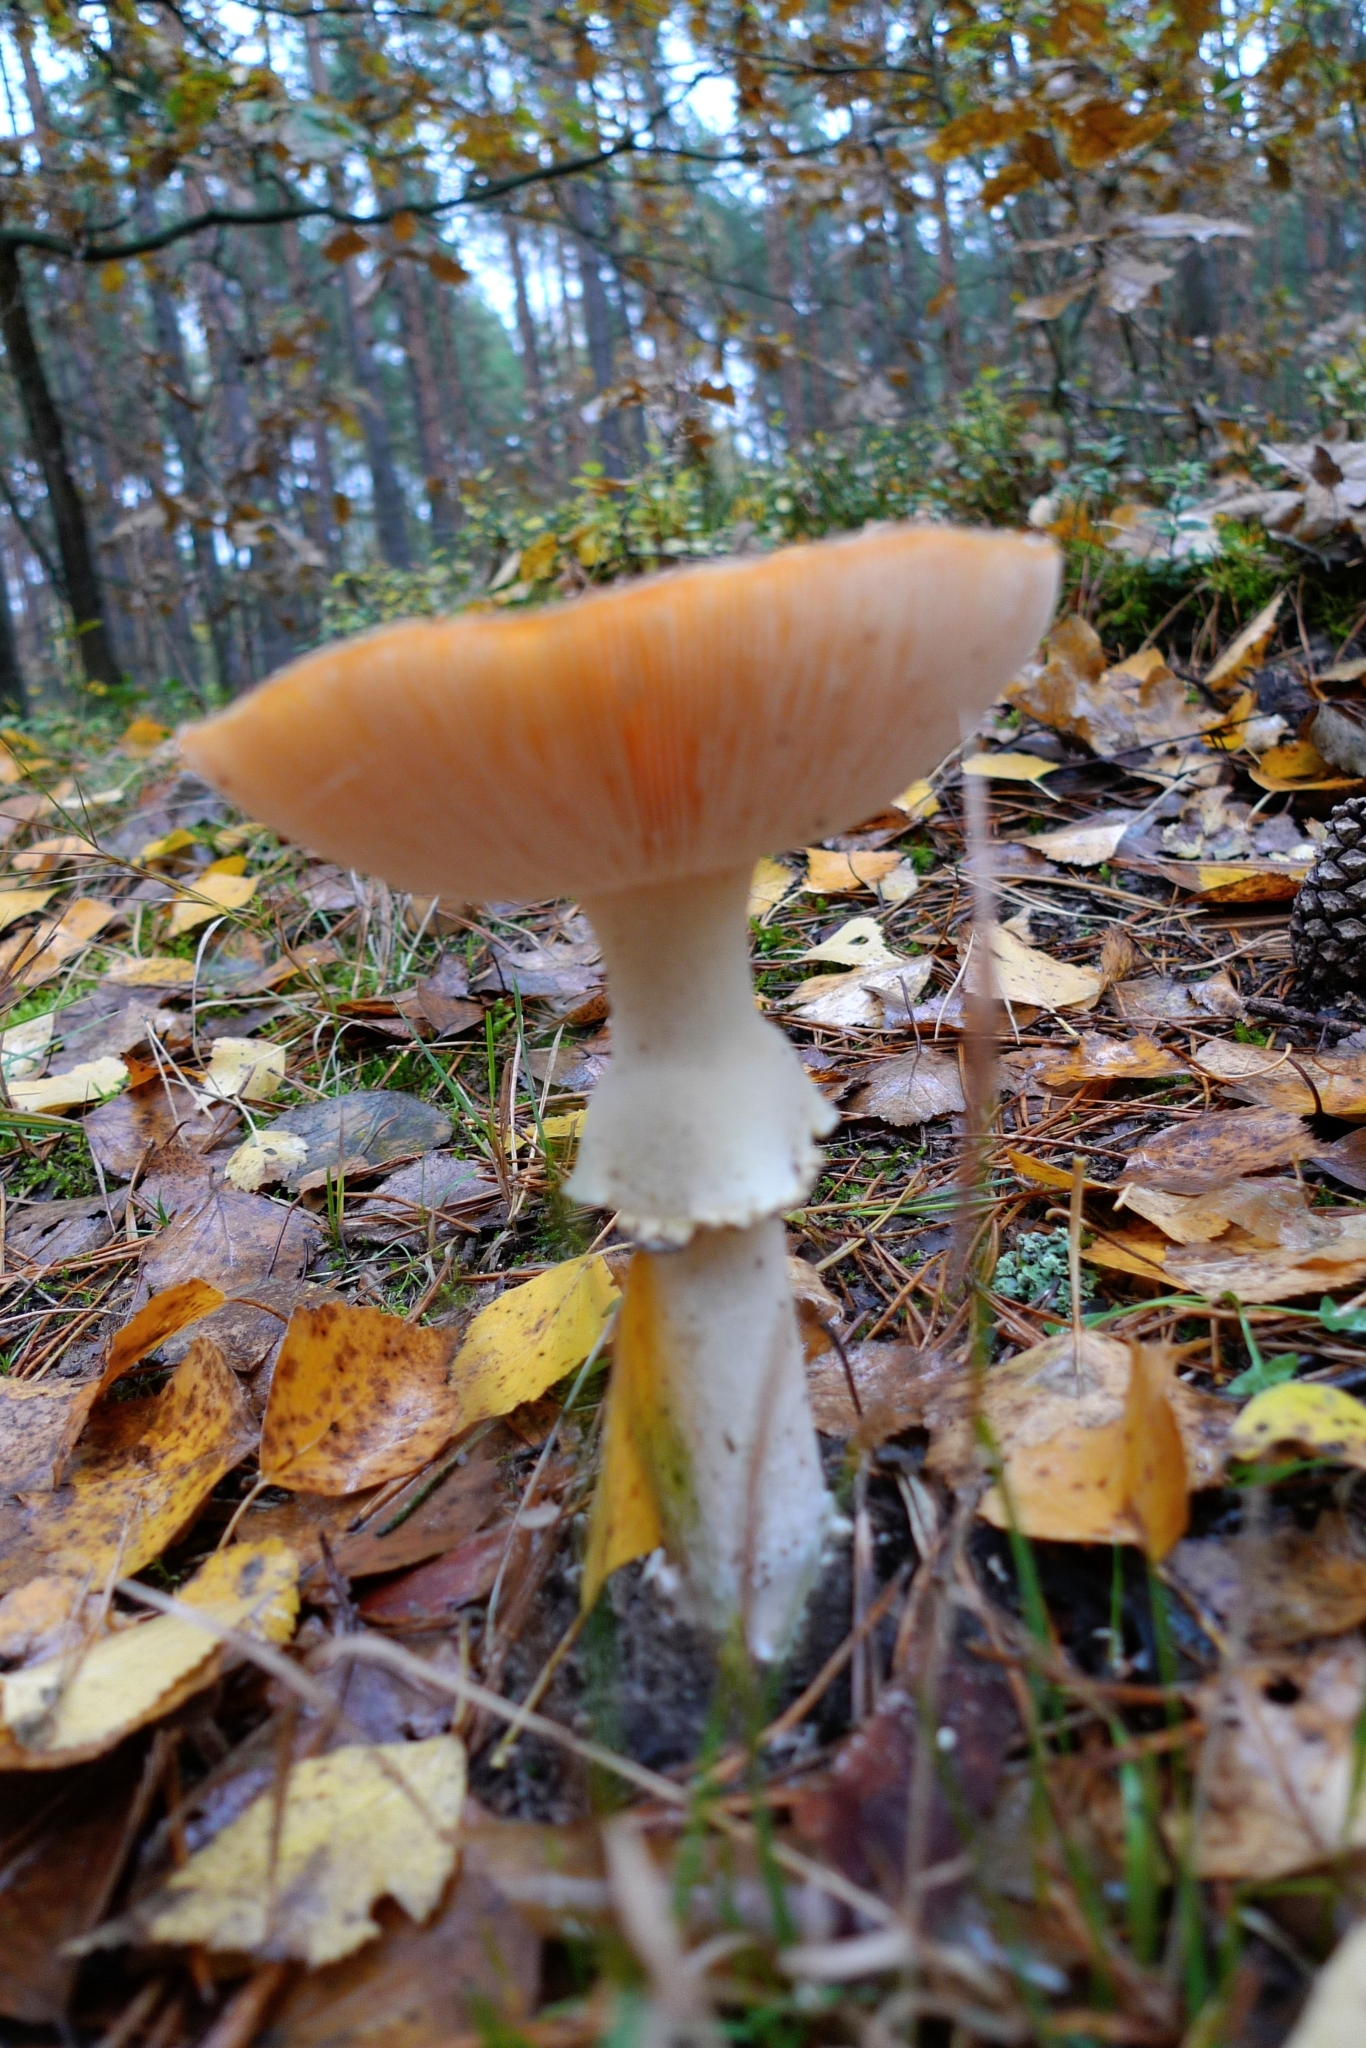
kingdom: Fungi
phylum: Basidiomycota
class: Agaricomycetes
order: Agaricales
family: Amanitaceae
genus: Amanita
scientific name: Amanita muscaria
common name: Fly agaric
